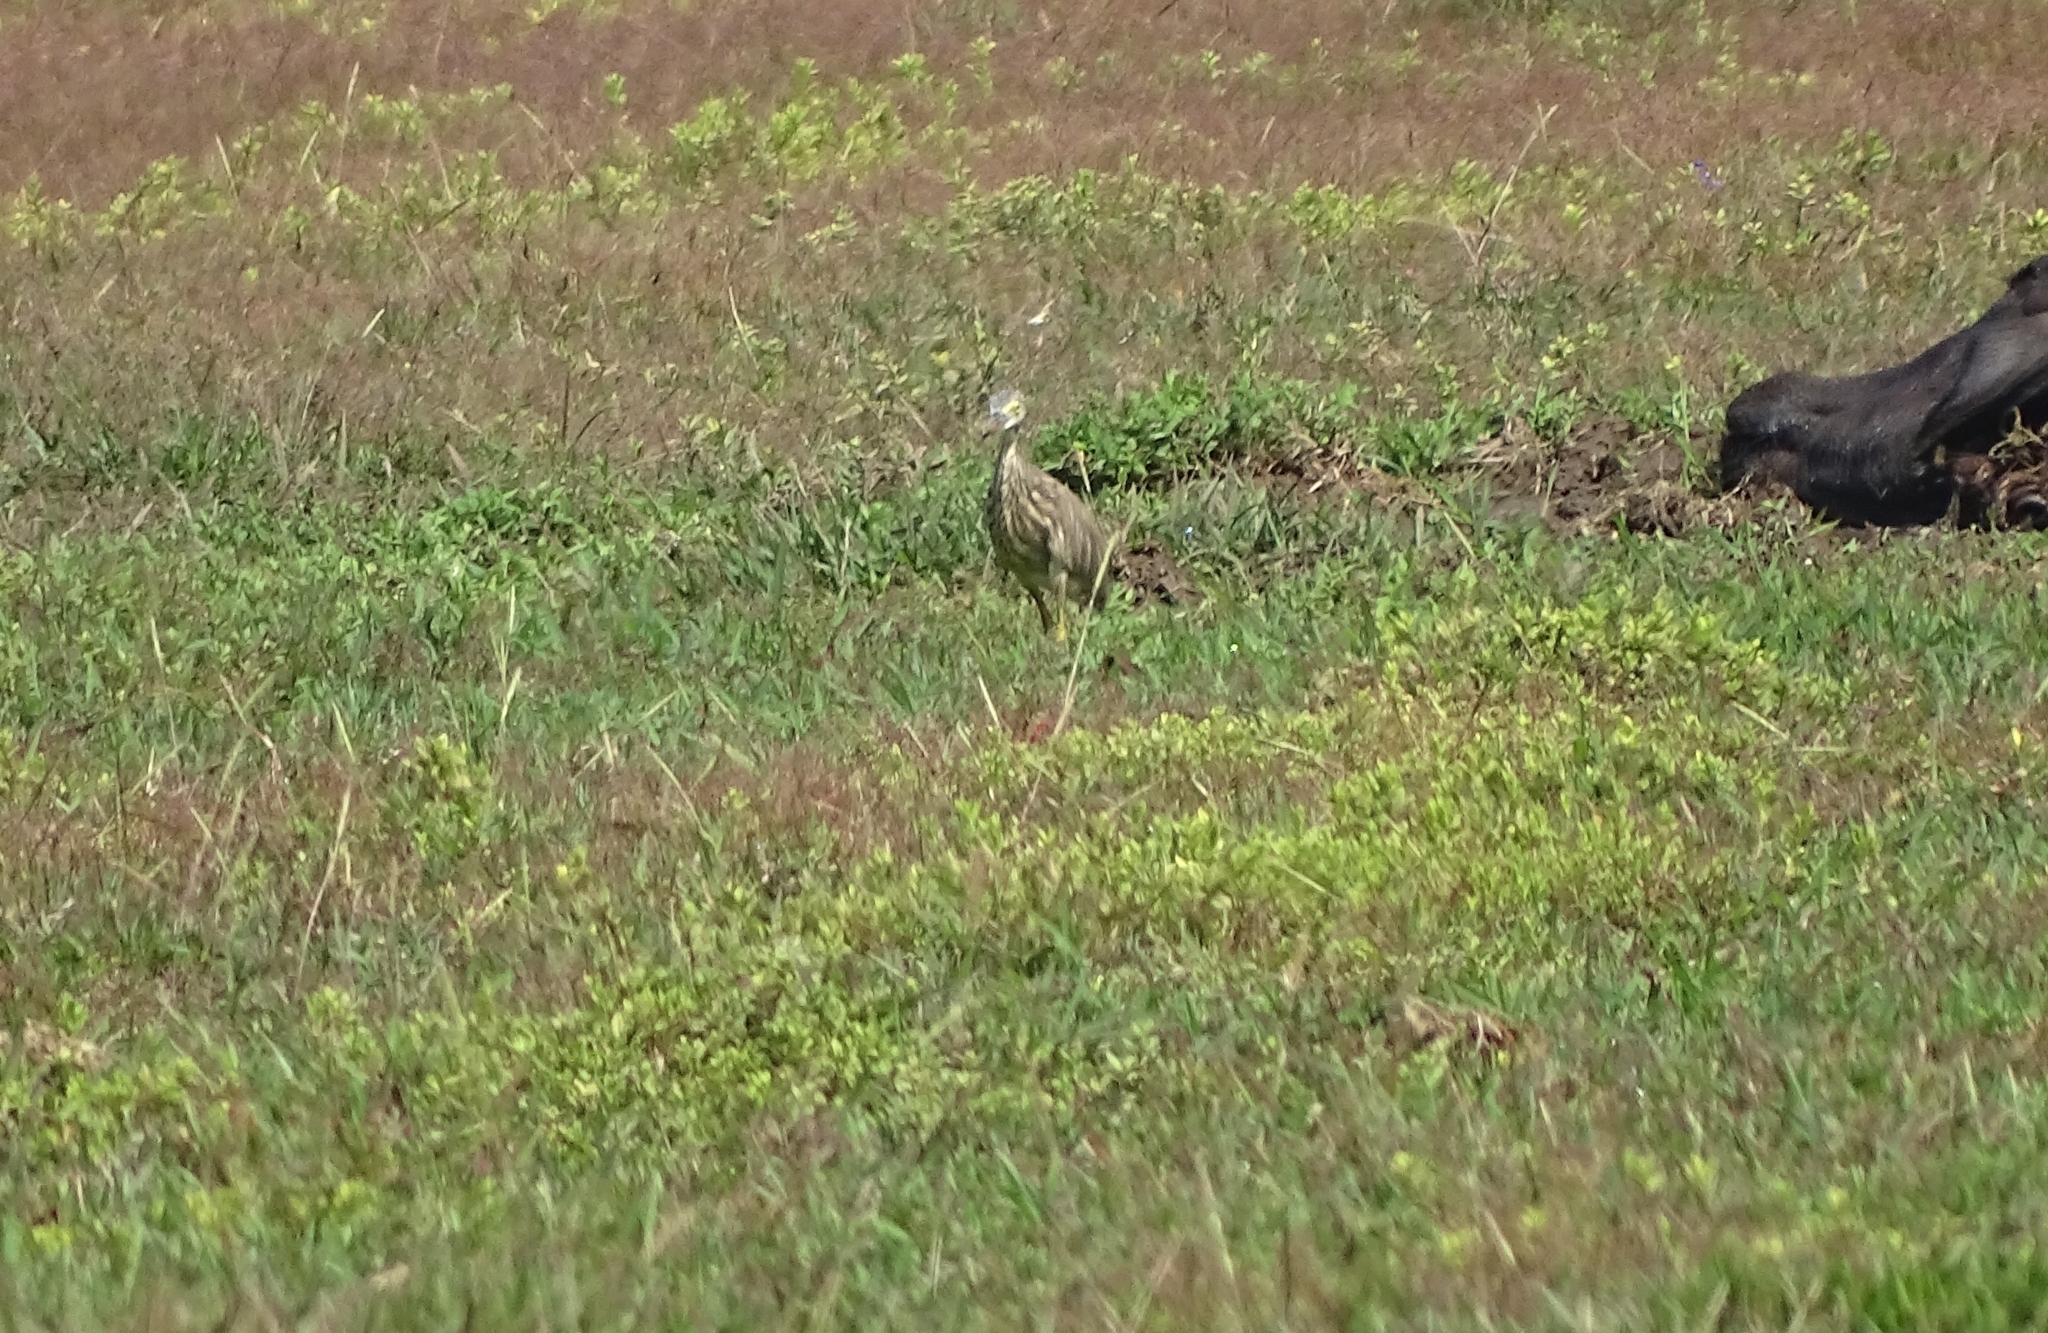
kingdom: Animalia
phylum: Chordata
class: Aves
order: Pelecaniformes
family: Ardeidae
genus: Ardeola
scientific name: Ardeola grayii
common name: Indian pond heron
